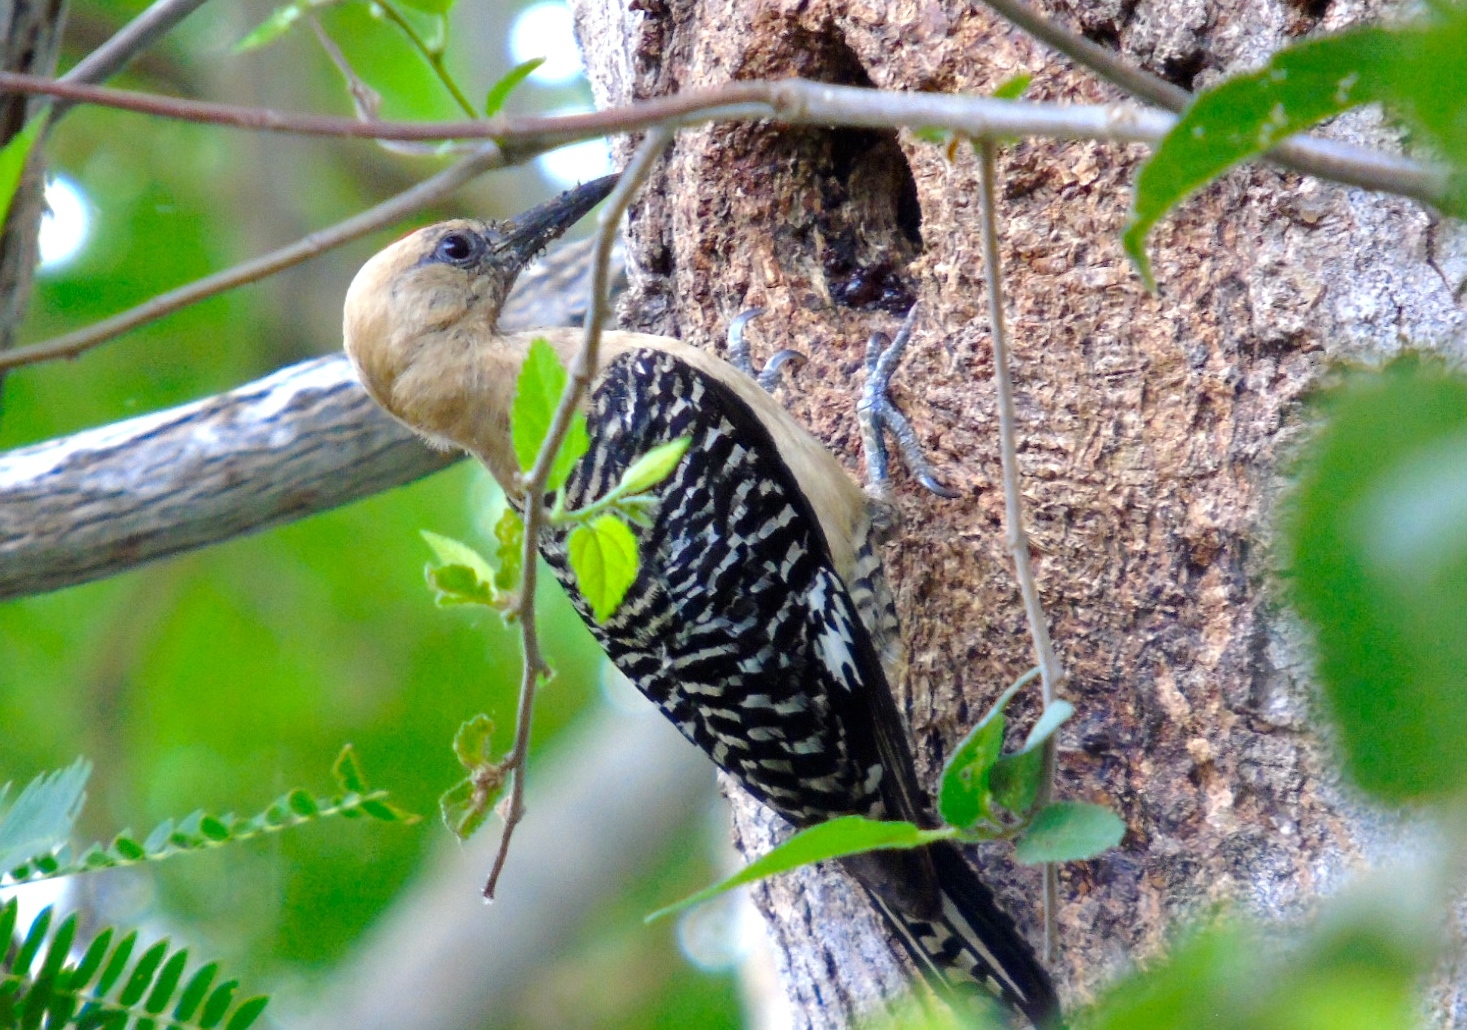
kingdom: Animalia
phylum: Chordata
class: Aves
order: Piciformes
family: Picidae
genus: Melanerpes
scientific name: Melanerpes uropygialis
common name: Gila woodpecker
